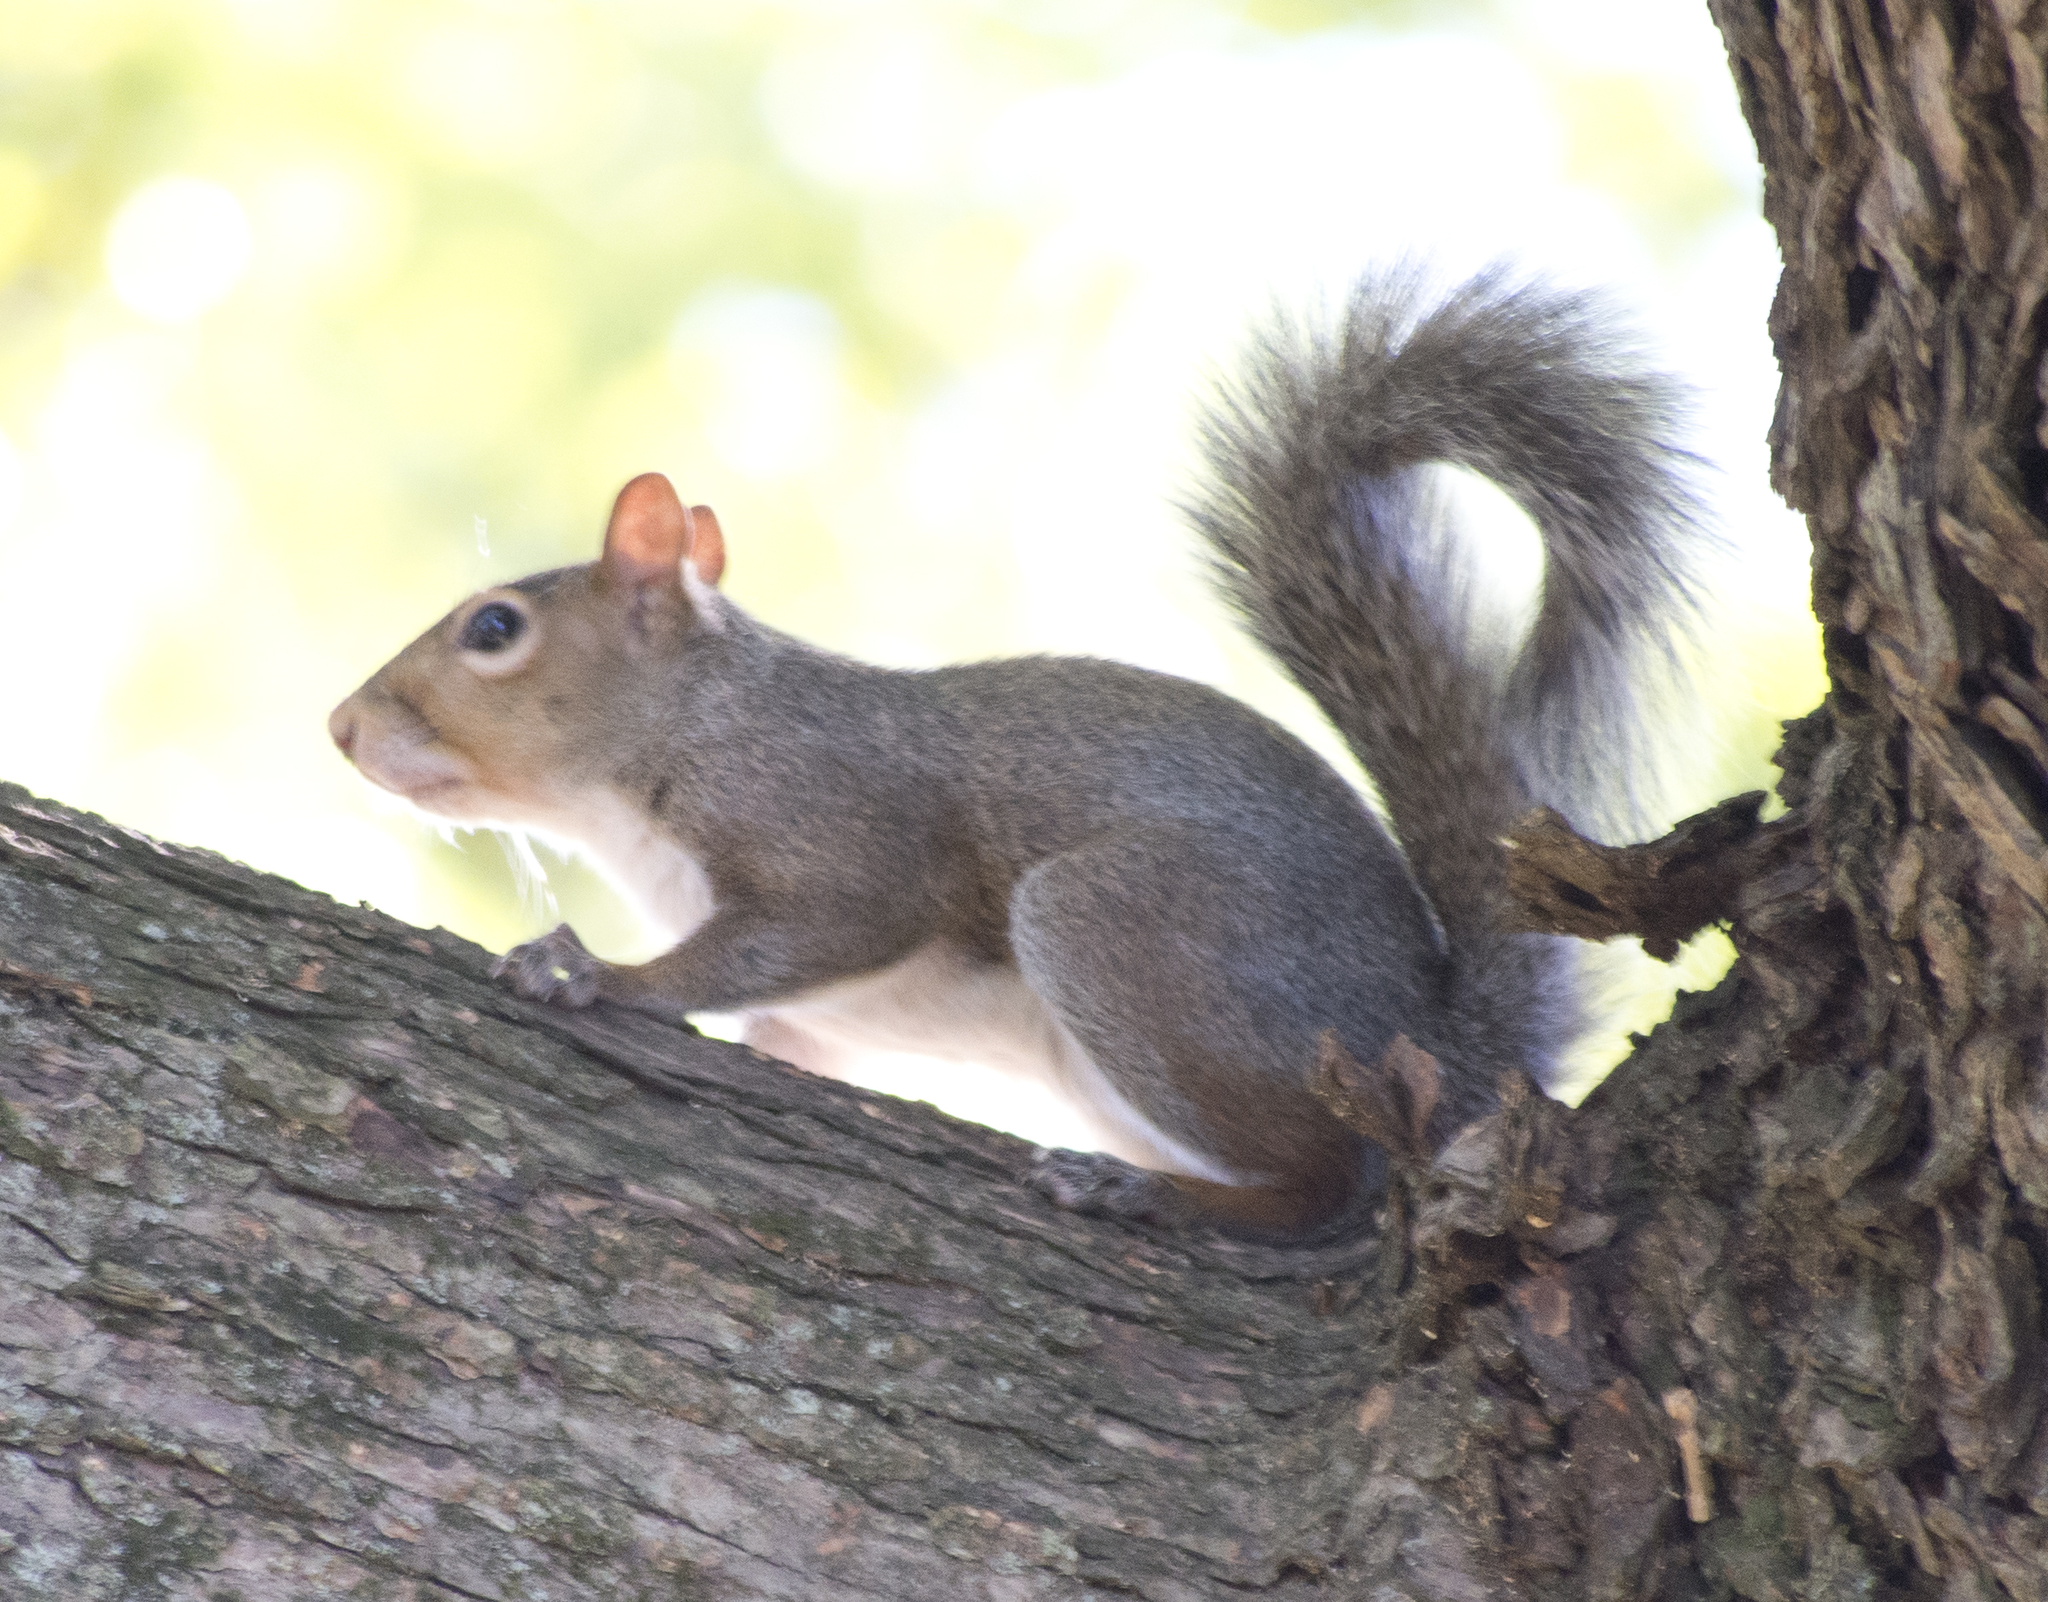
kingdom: Animalia
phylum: Chordata
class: Mammalia
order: Rodentia
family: Sciuridae
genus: Sciurus
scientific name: Sciurus carolinensis
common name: Eastern gray squirrel
